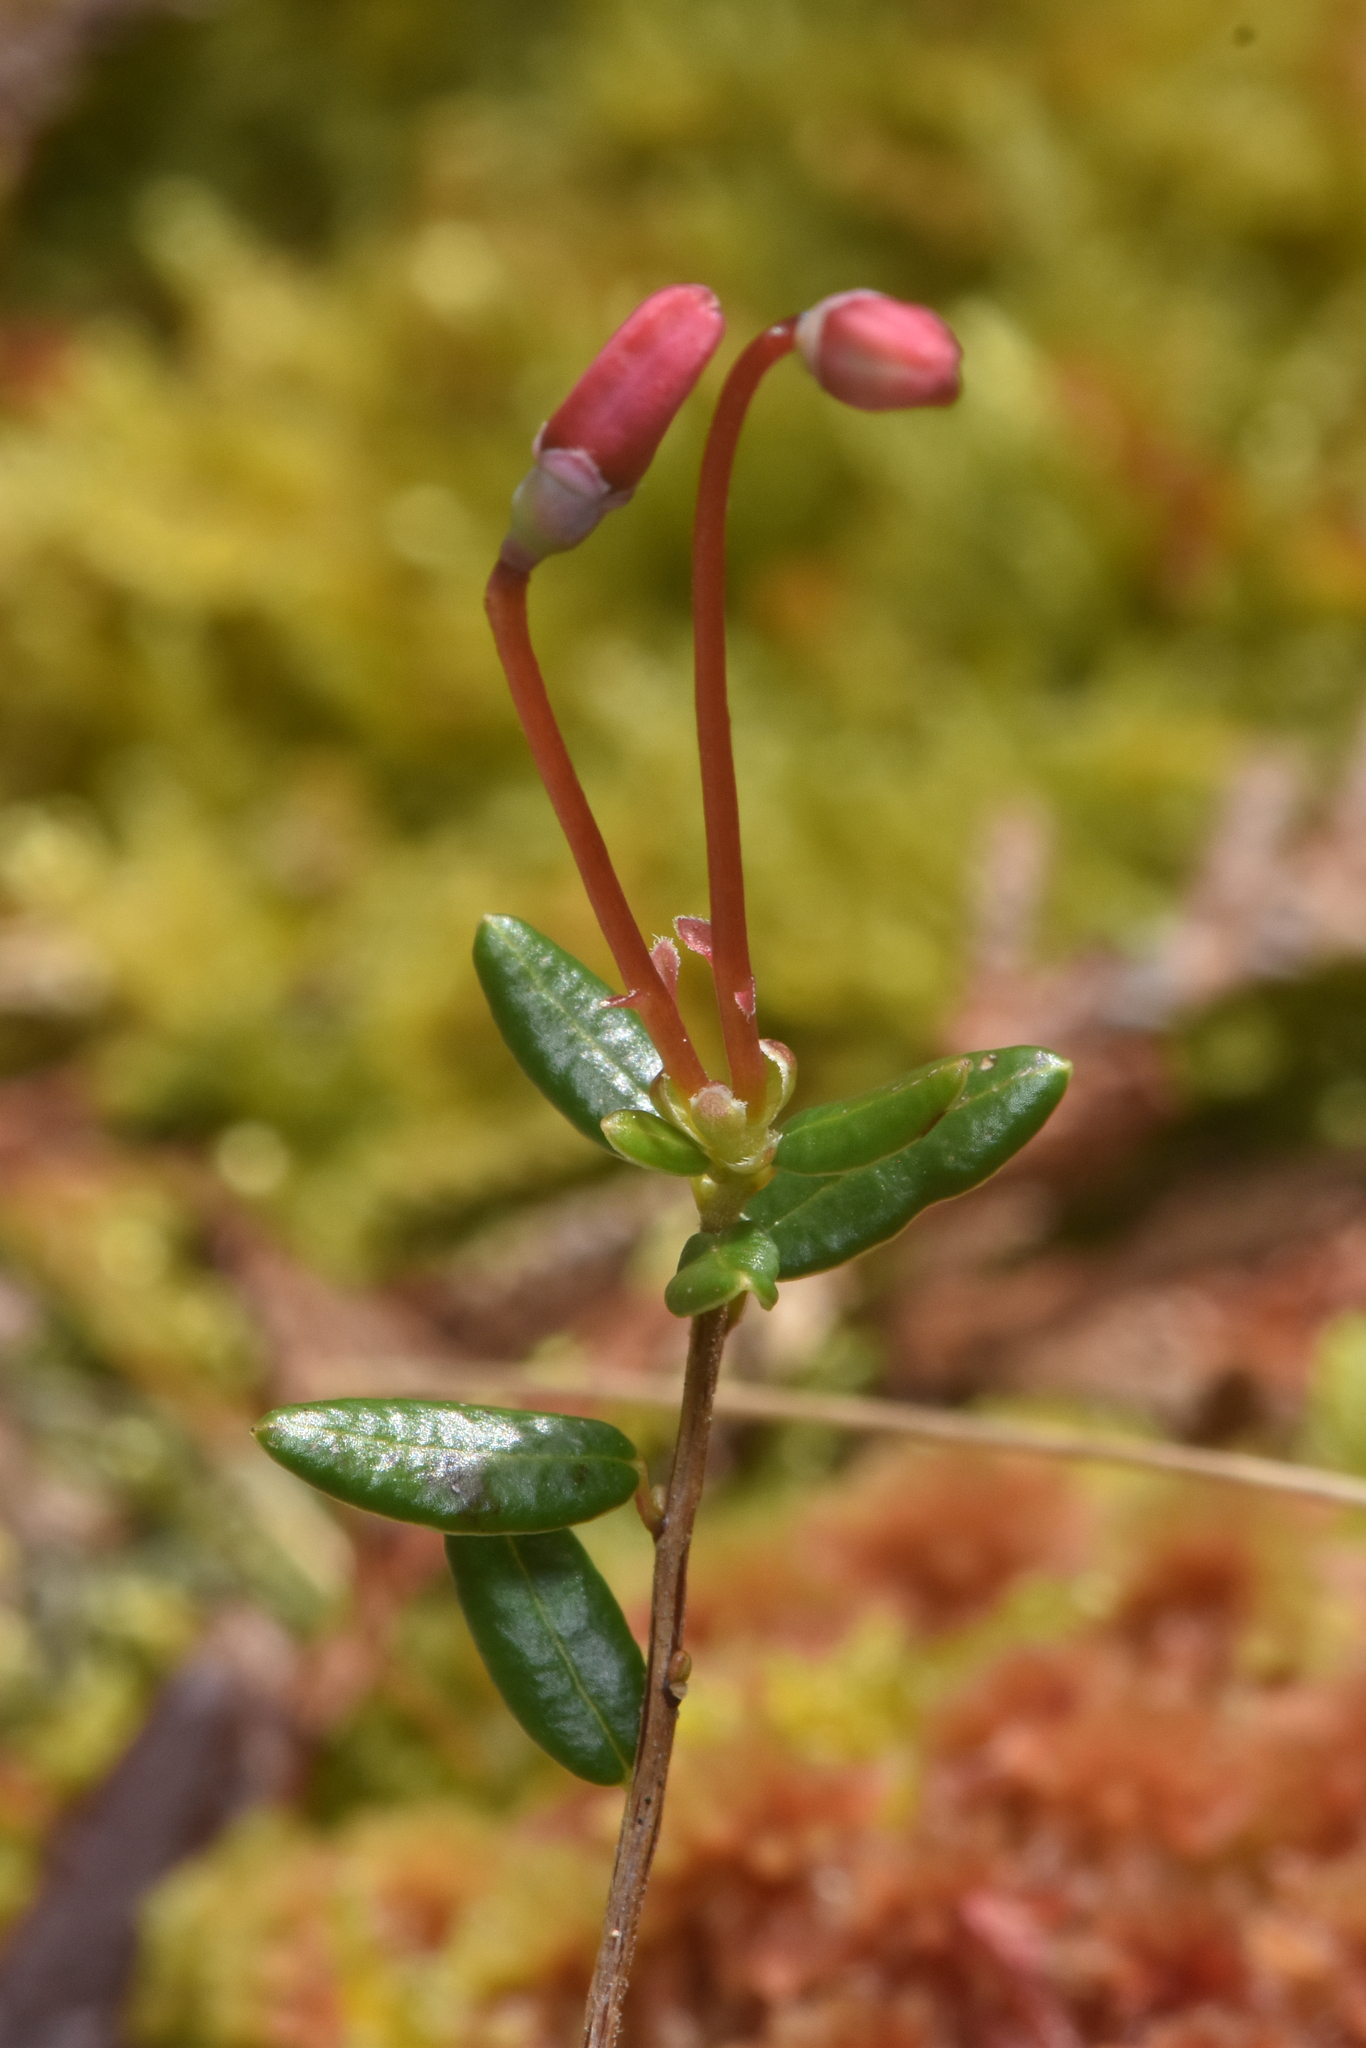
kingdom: Plantae
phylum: Tracheophyta
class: Magnoliopsida
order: Ericales
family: Ericaceae
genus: Vaccinium
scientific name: Vaccinium oxycoccos
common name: Cranberry
